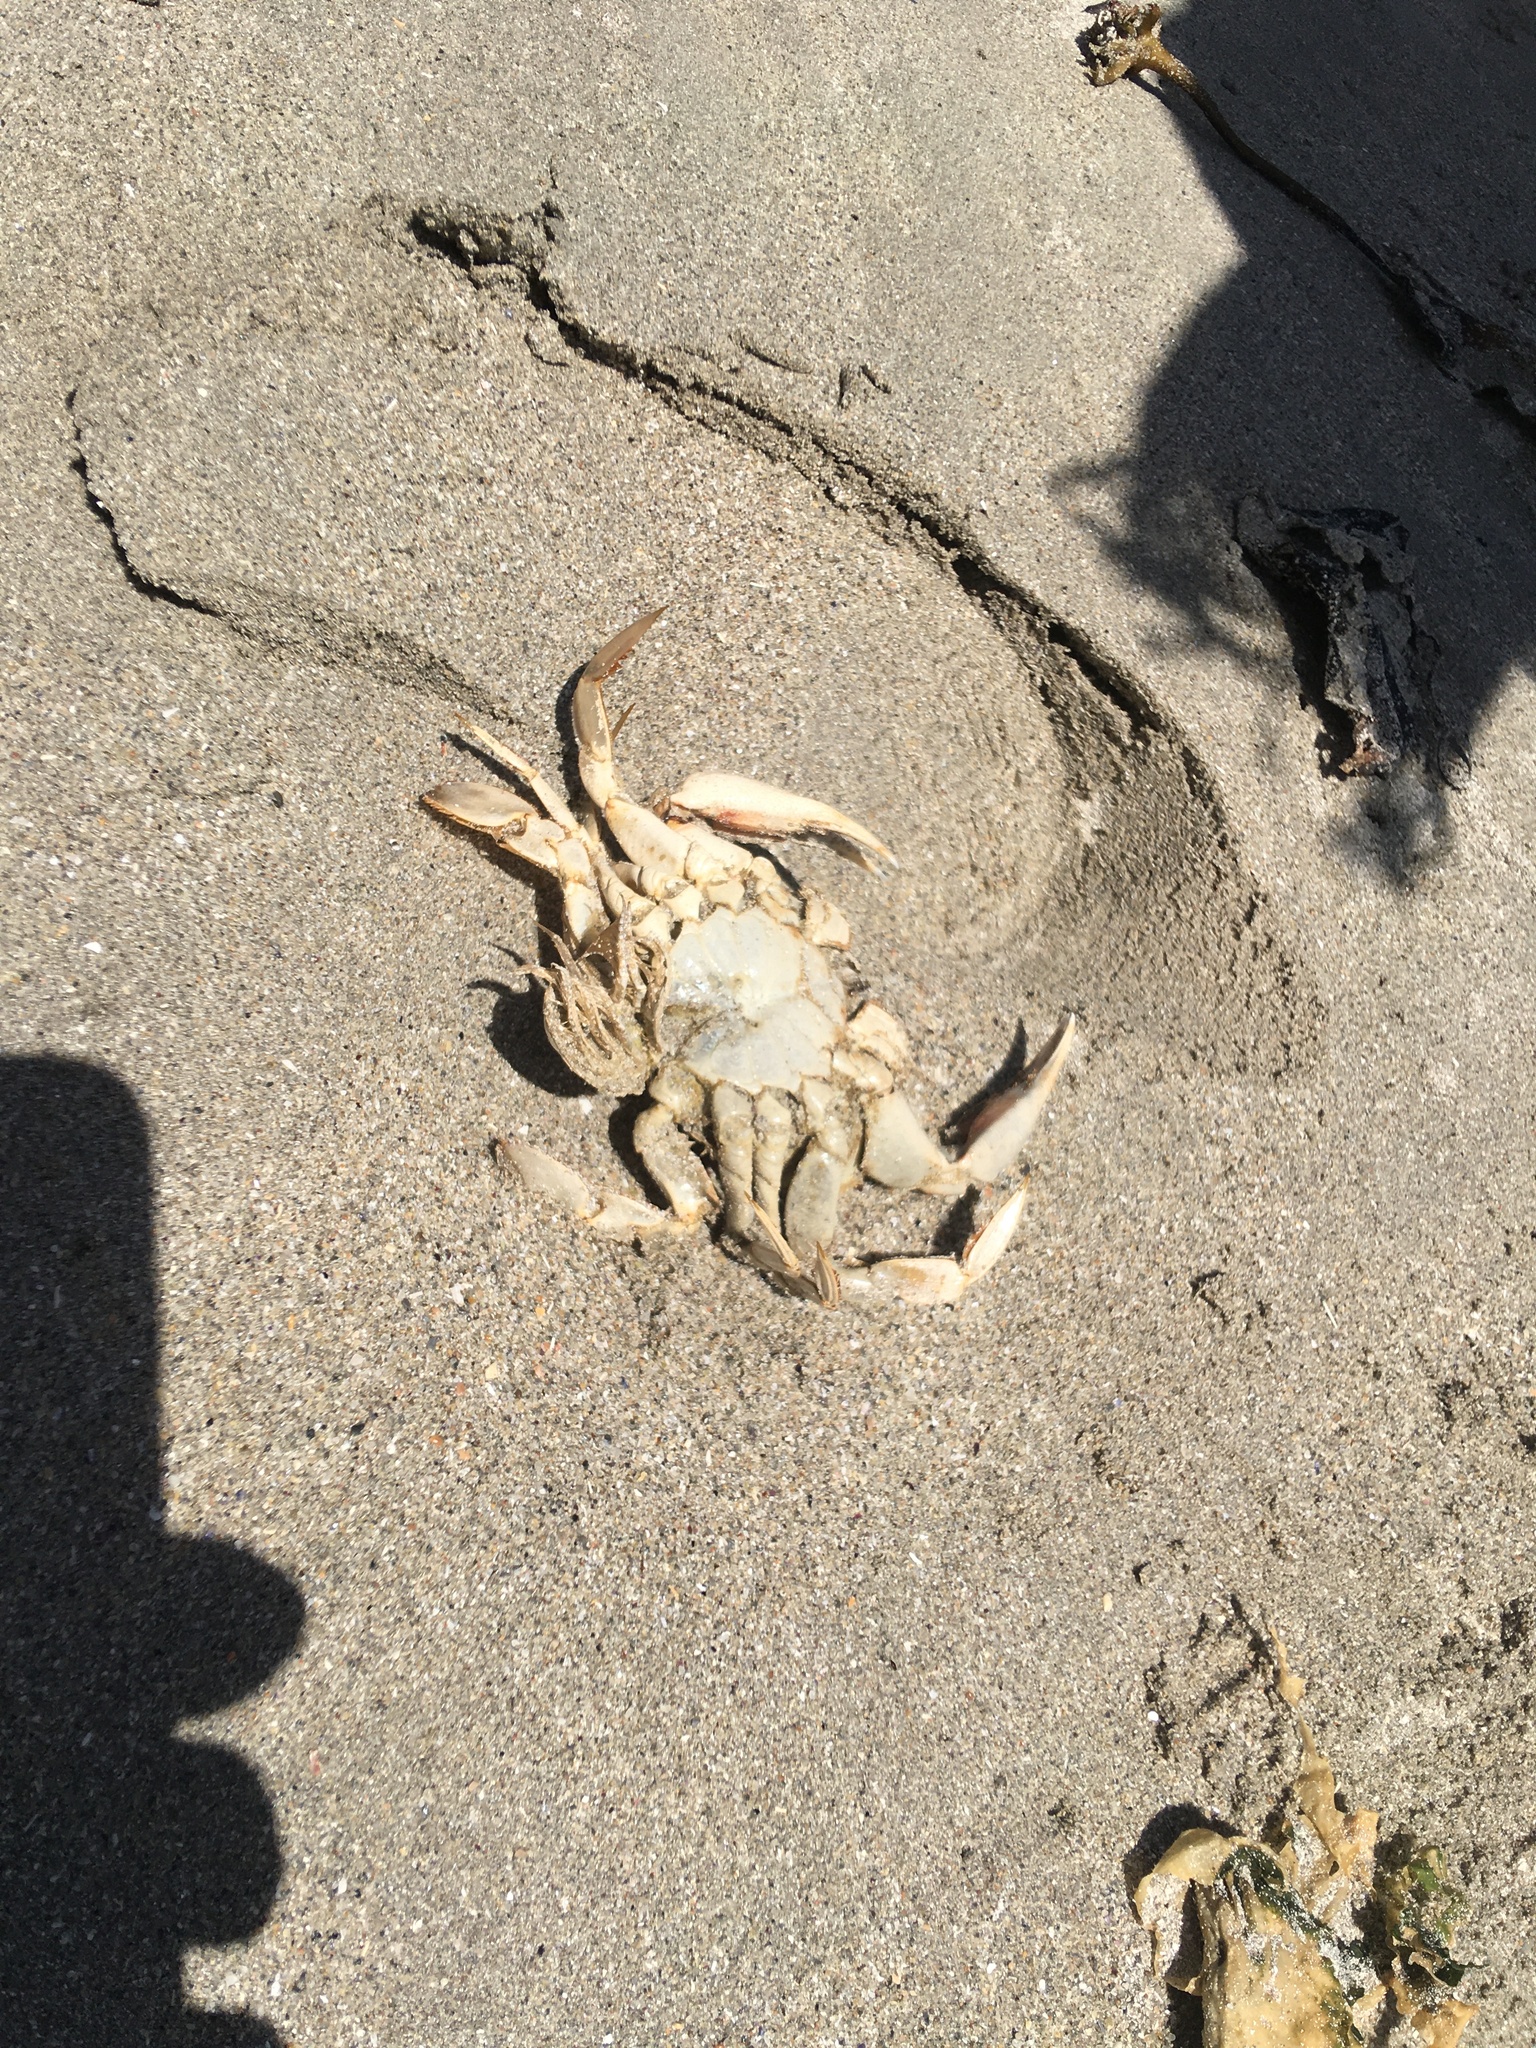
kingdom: Animalia
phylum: Arthropoda
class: Malacostraca
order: Decapoda
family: Ovalipidae
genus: Ovalipes
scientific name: Ovalipes trimaculatus
